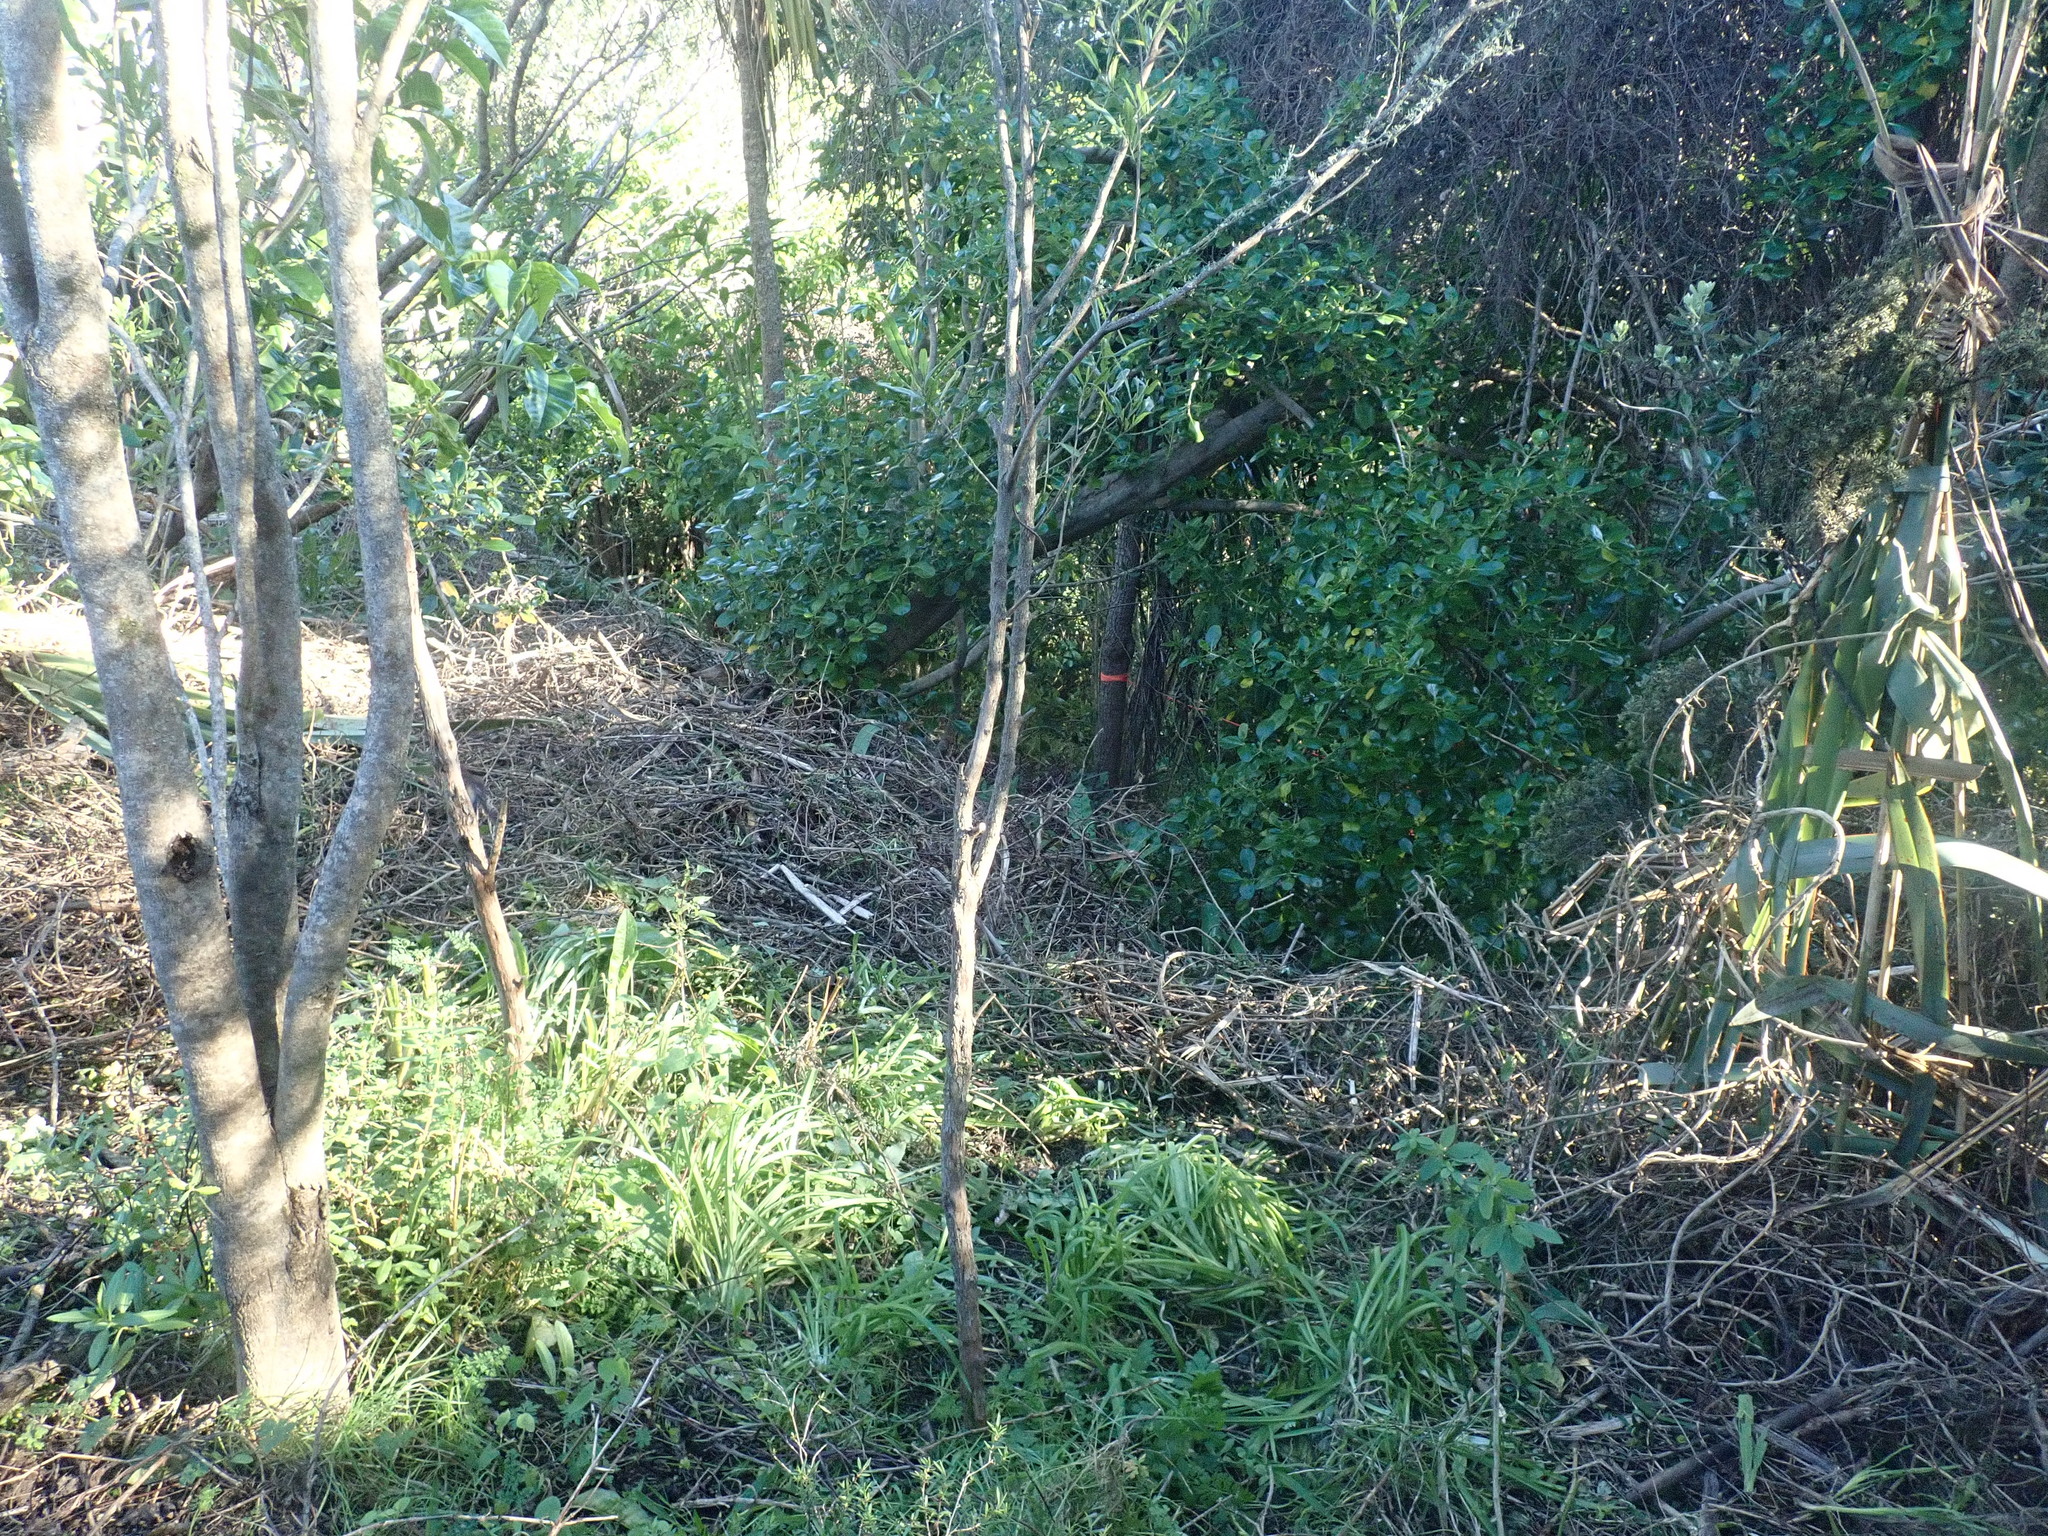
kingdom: Plantae
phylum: Tracheophyta
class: Liliopsida
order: Asparagales
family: Amaryllidaceae
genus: Allium
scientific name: Allium triquetrum
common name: Three-cornered garlic
